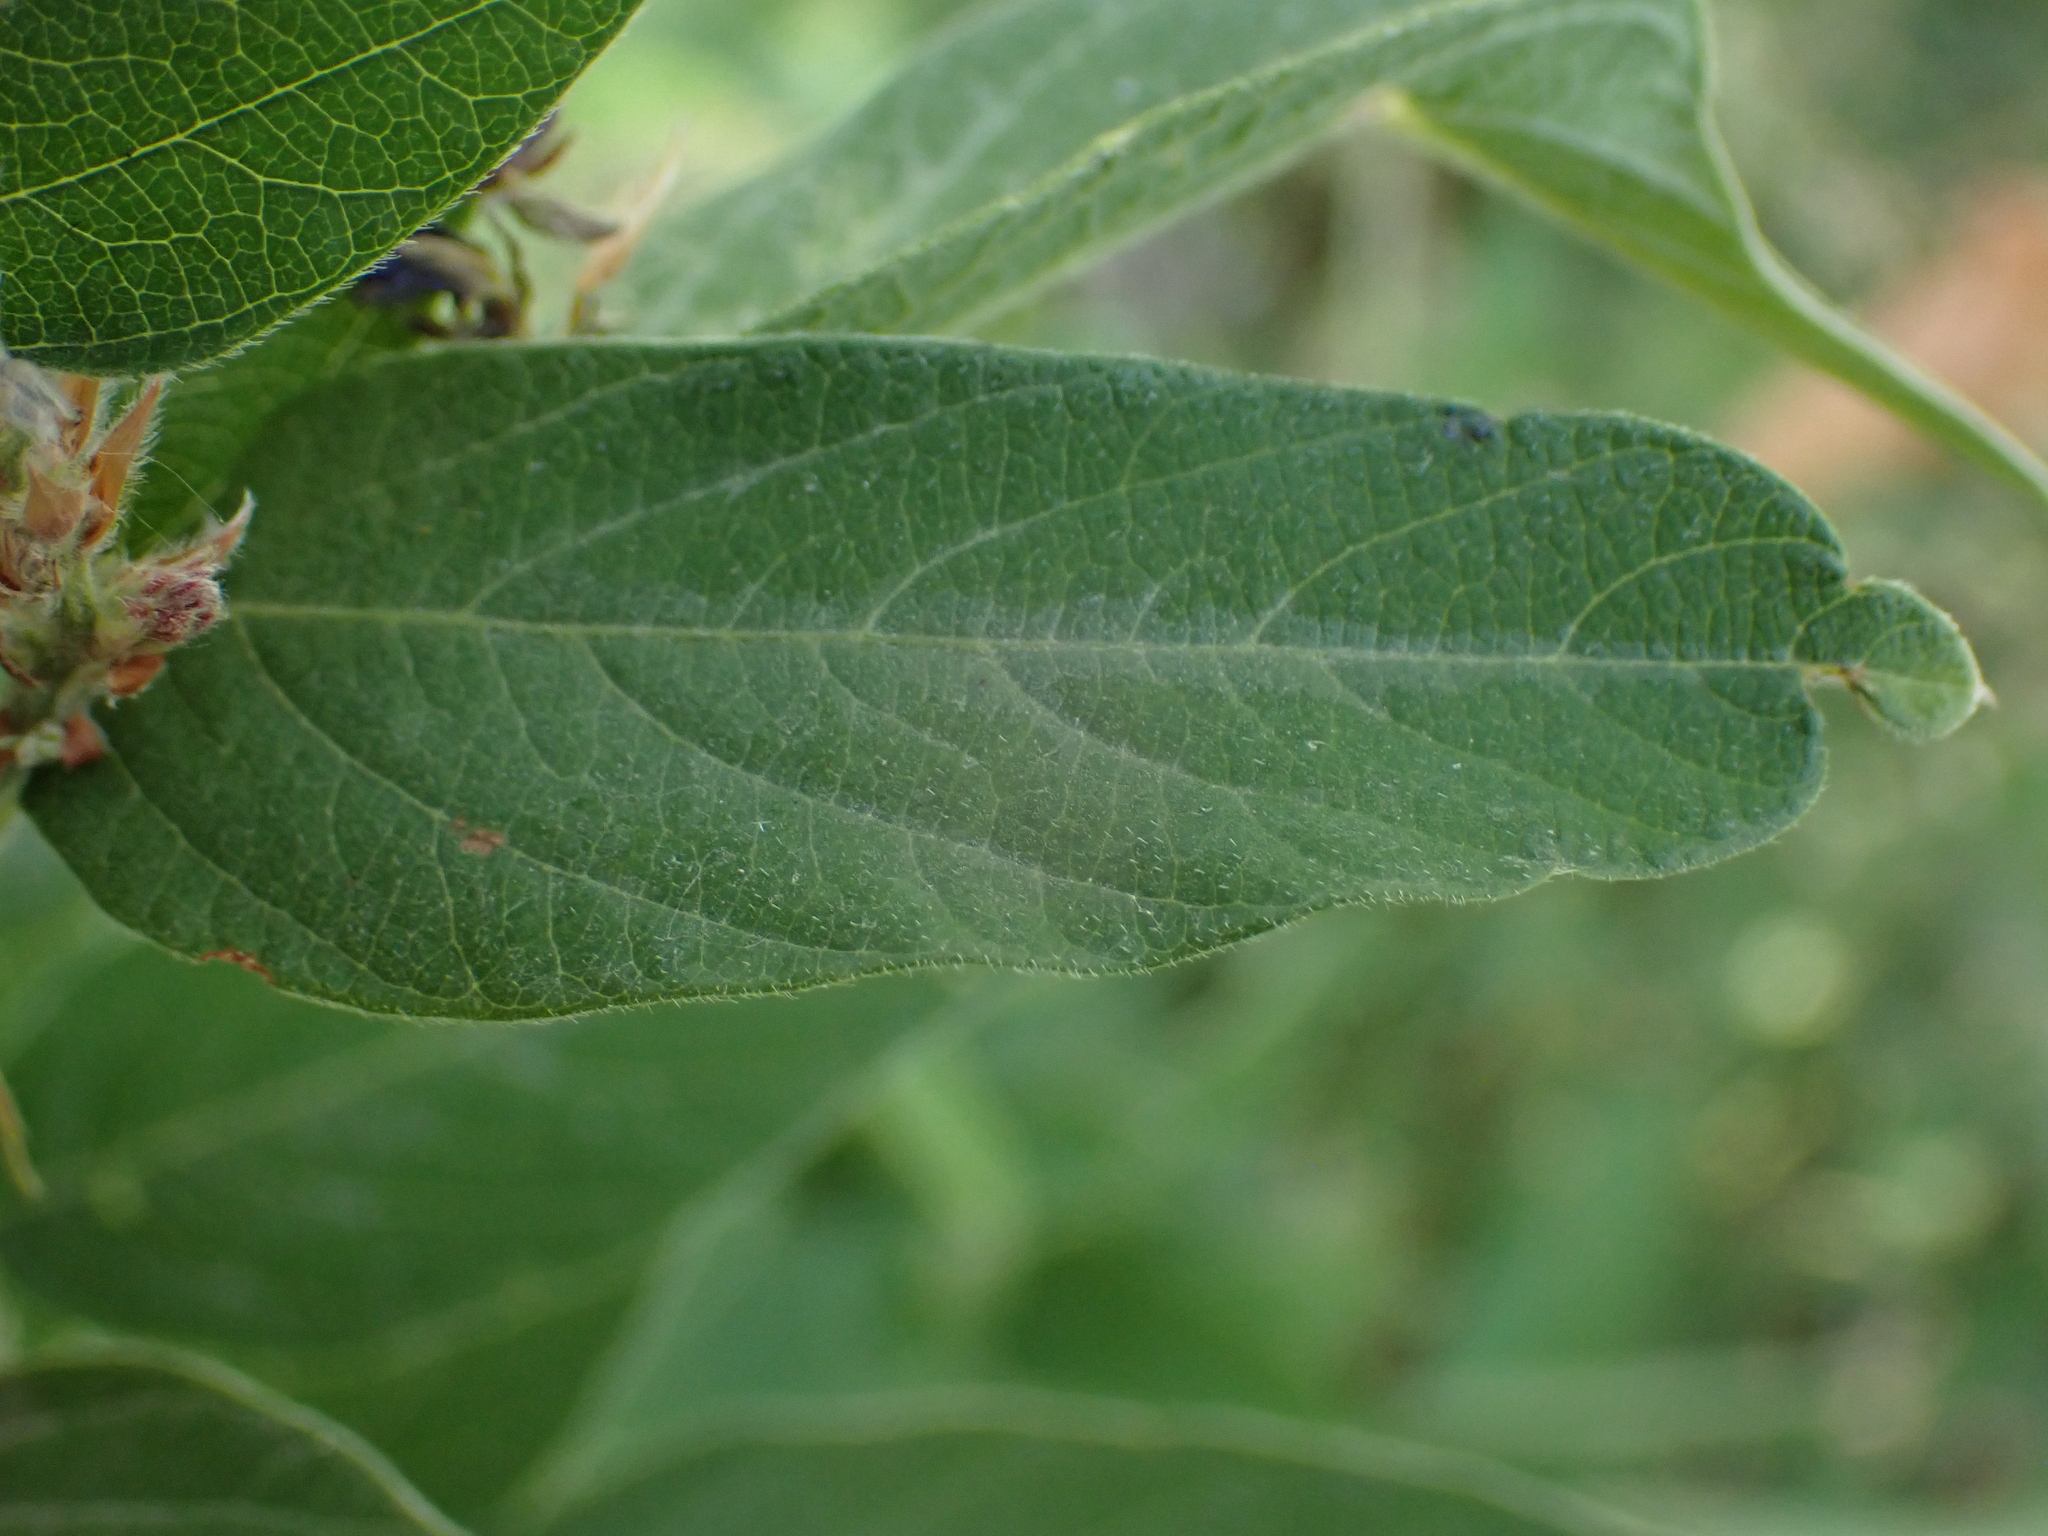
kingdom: Plantae
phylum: Tracheophyta
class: Magnoliopsida
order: Fabales
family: Fabaceae
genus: Desmodium
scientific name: Desmodium canadense
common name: Canada tick-trefoil
